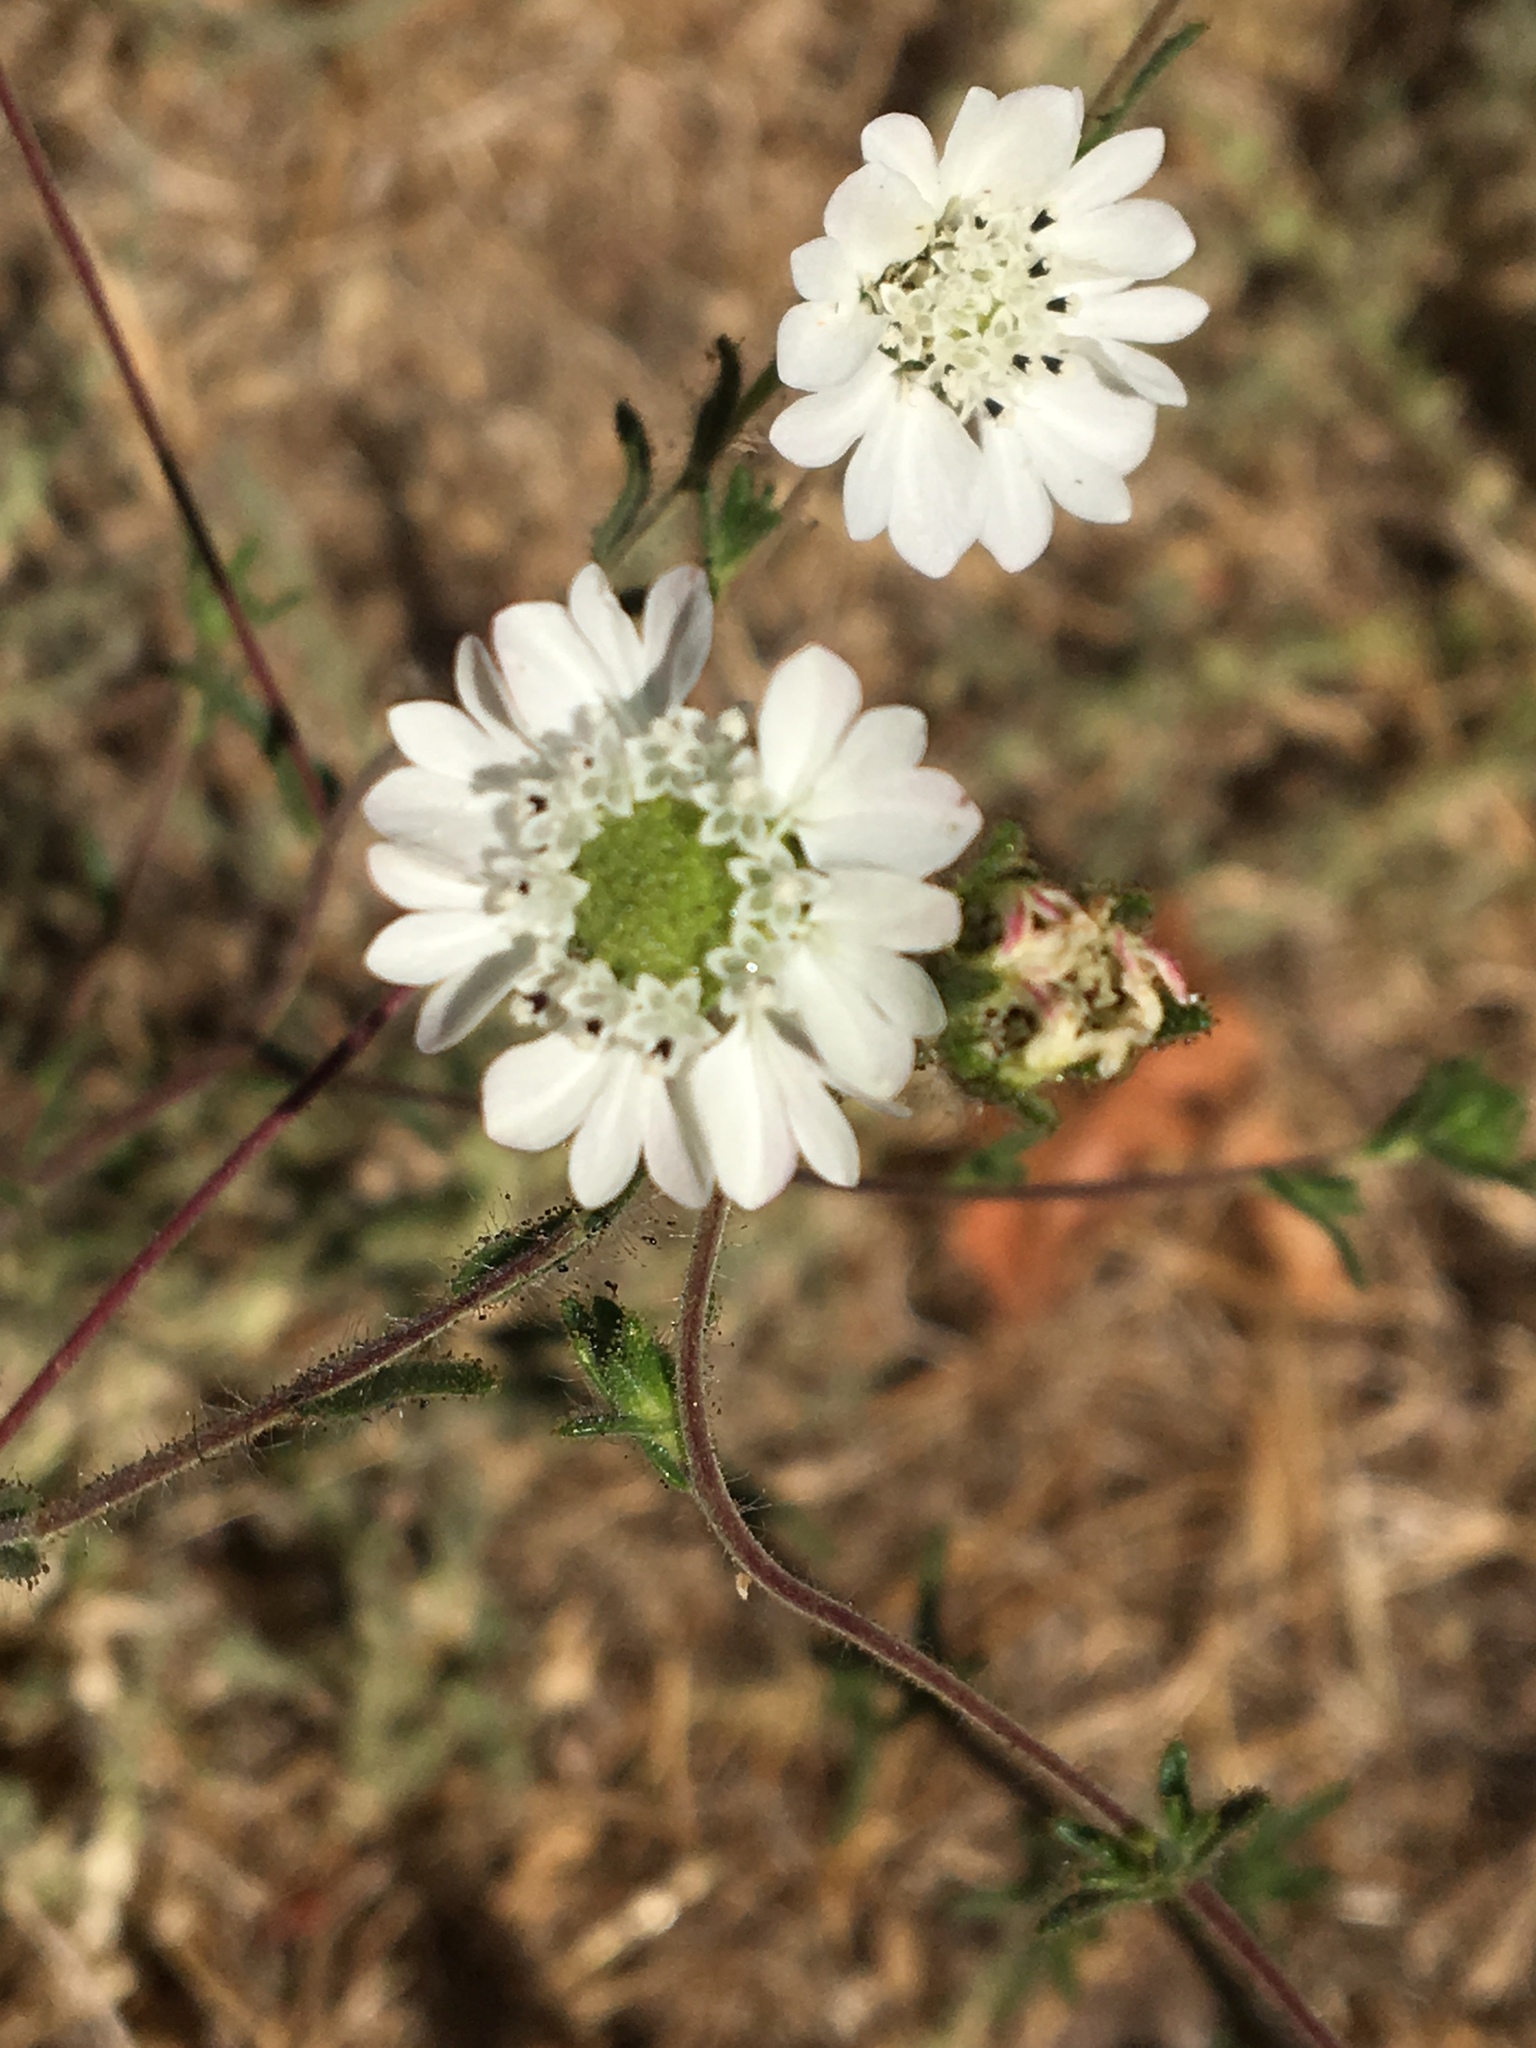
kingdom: Plantae
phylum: Tracheophyta
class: Magnoliopsida
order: Asterales
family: Asteraceae
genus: Hemizonia
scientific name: Hemizonia congesta
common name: Hayfield tarweed
